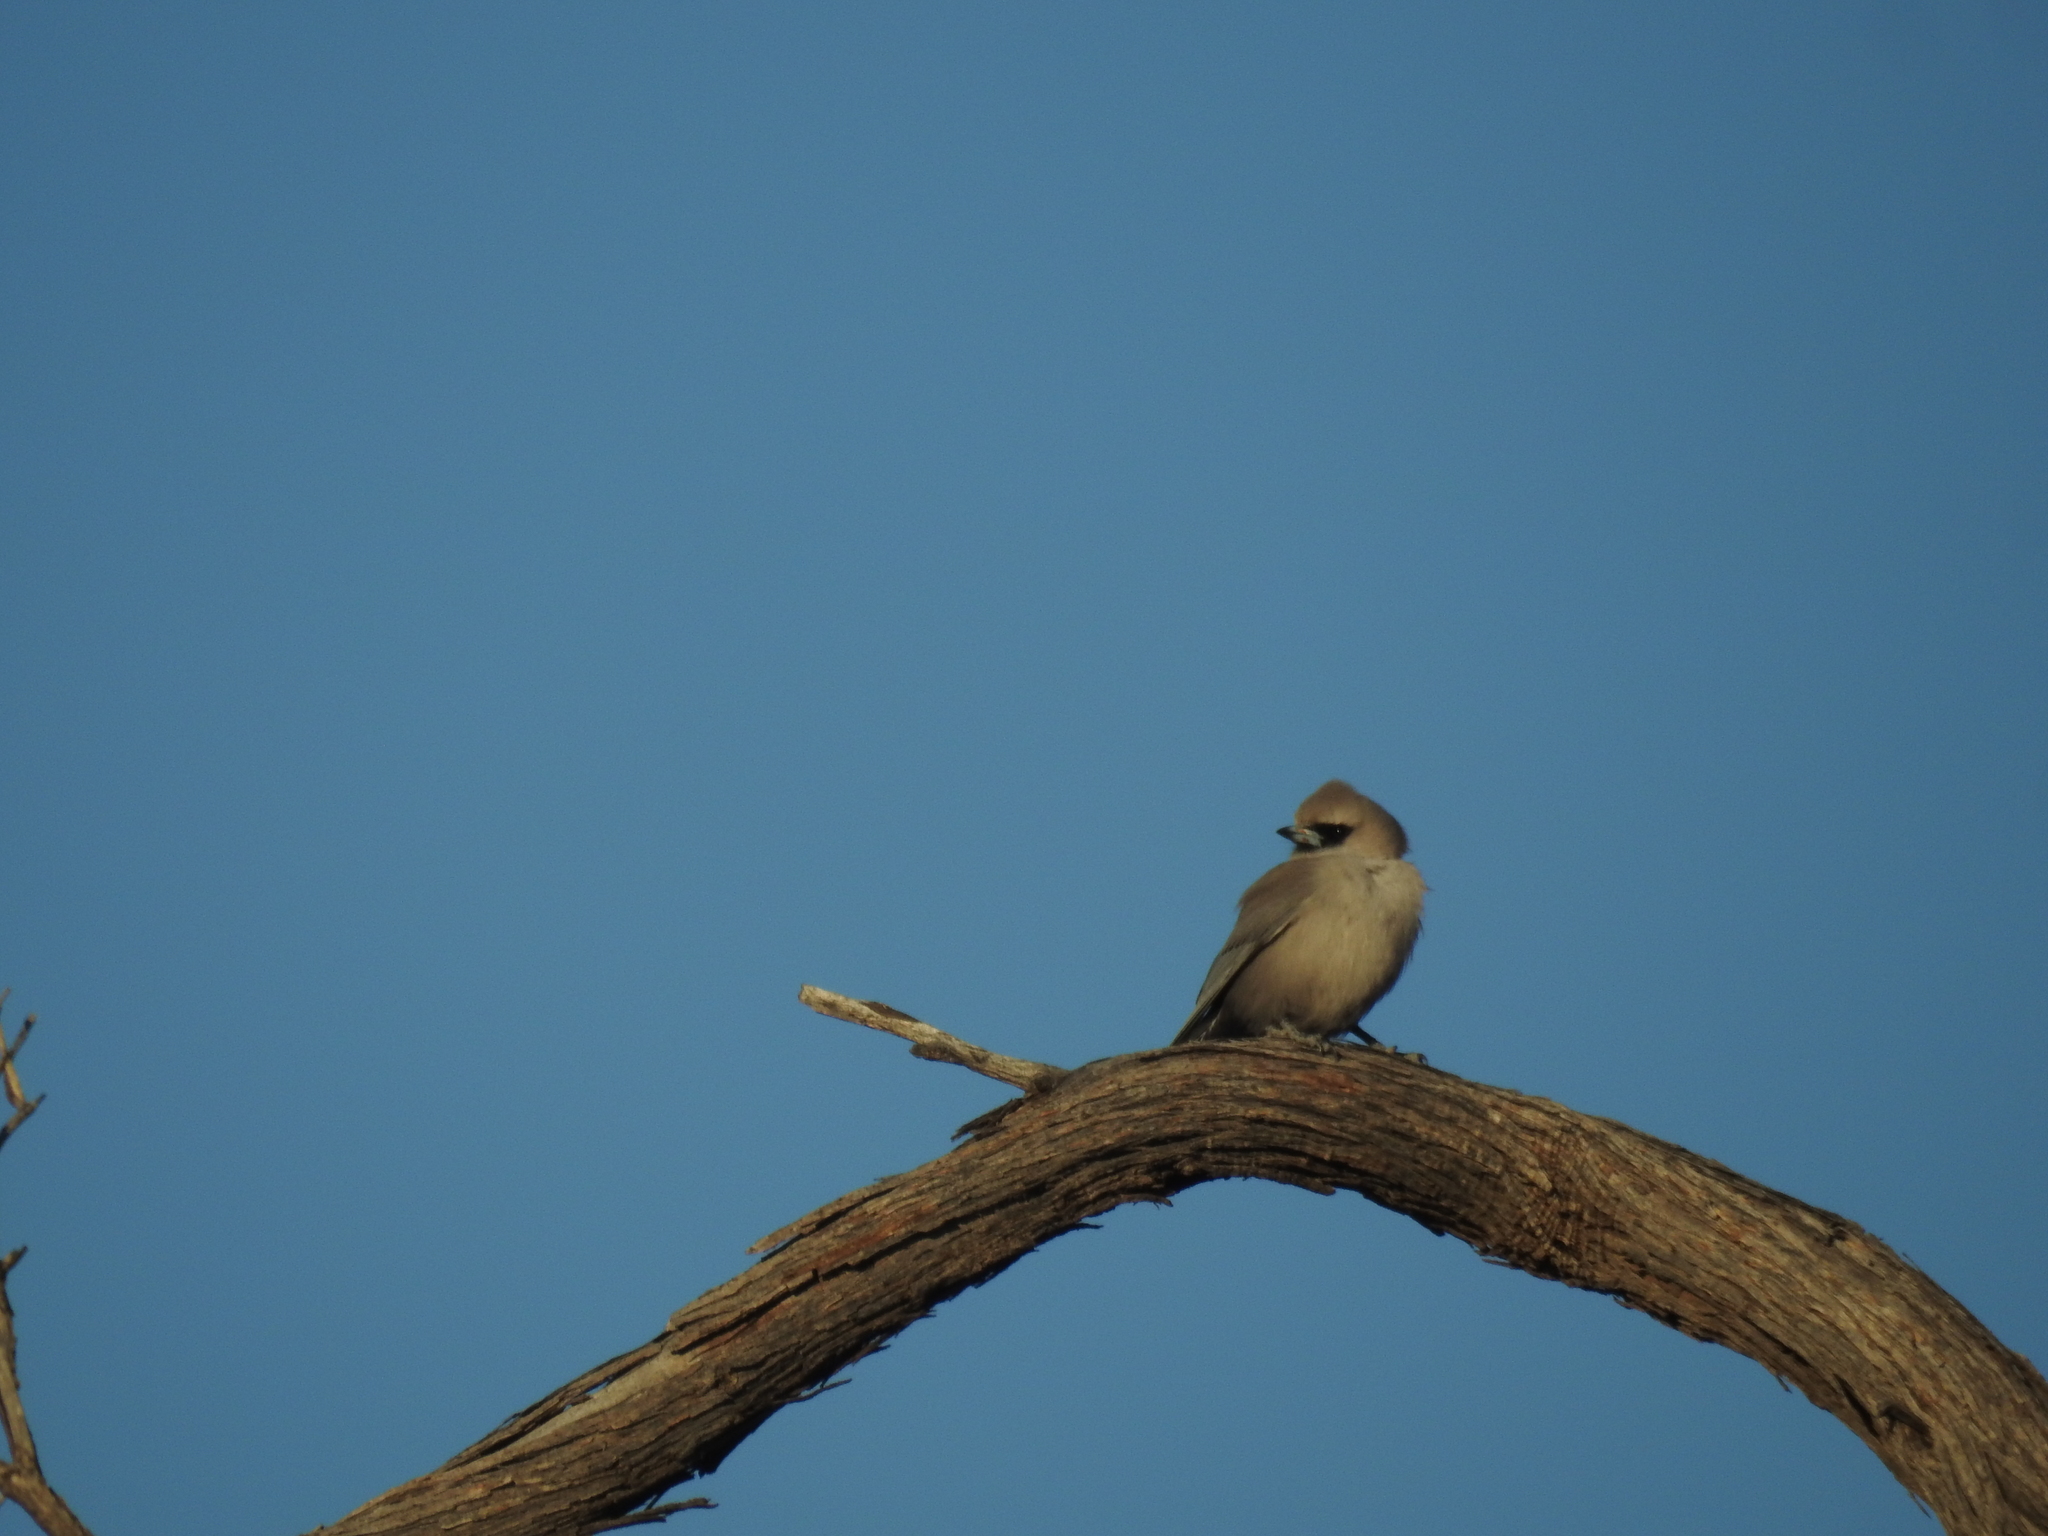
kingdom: Animalia
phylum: Chordata
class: Aves
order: Passeriformes
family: Artamidae
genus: Artamus
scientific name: Artamus cinereus
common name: Black-faced woodswallow
